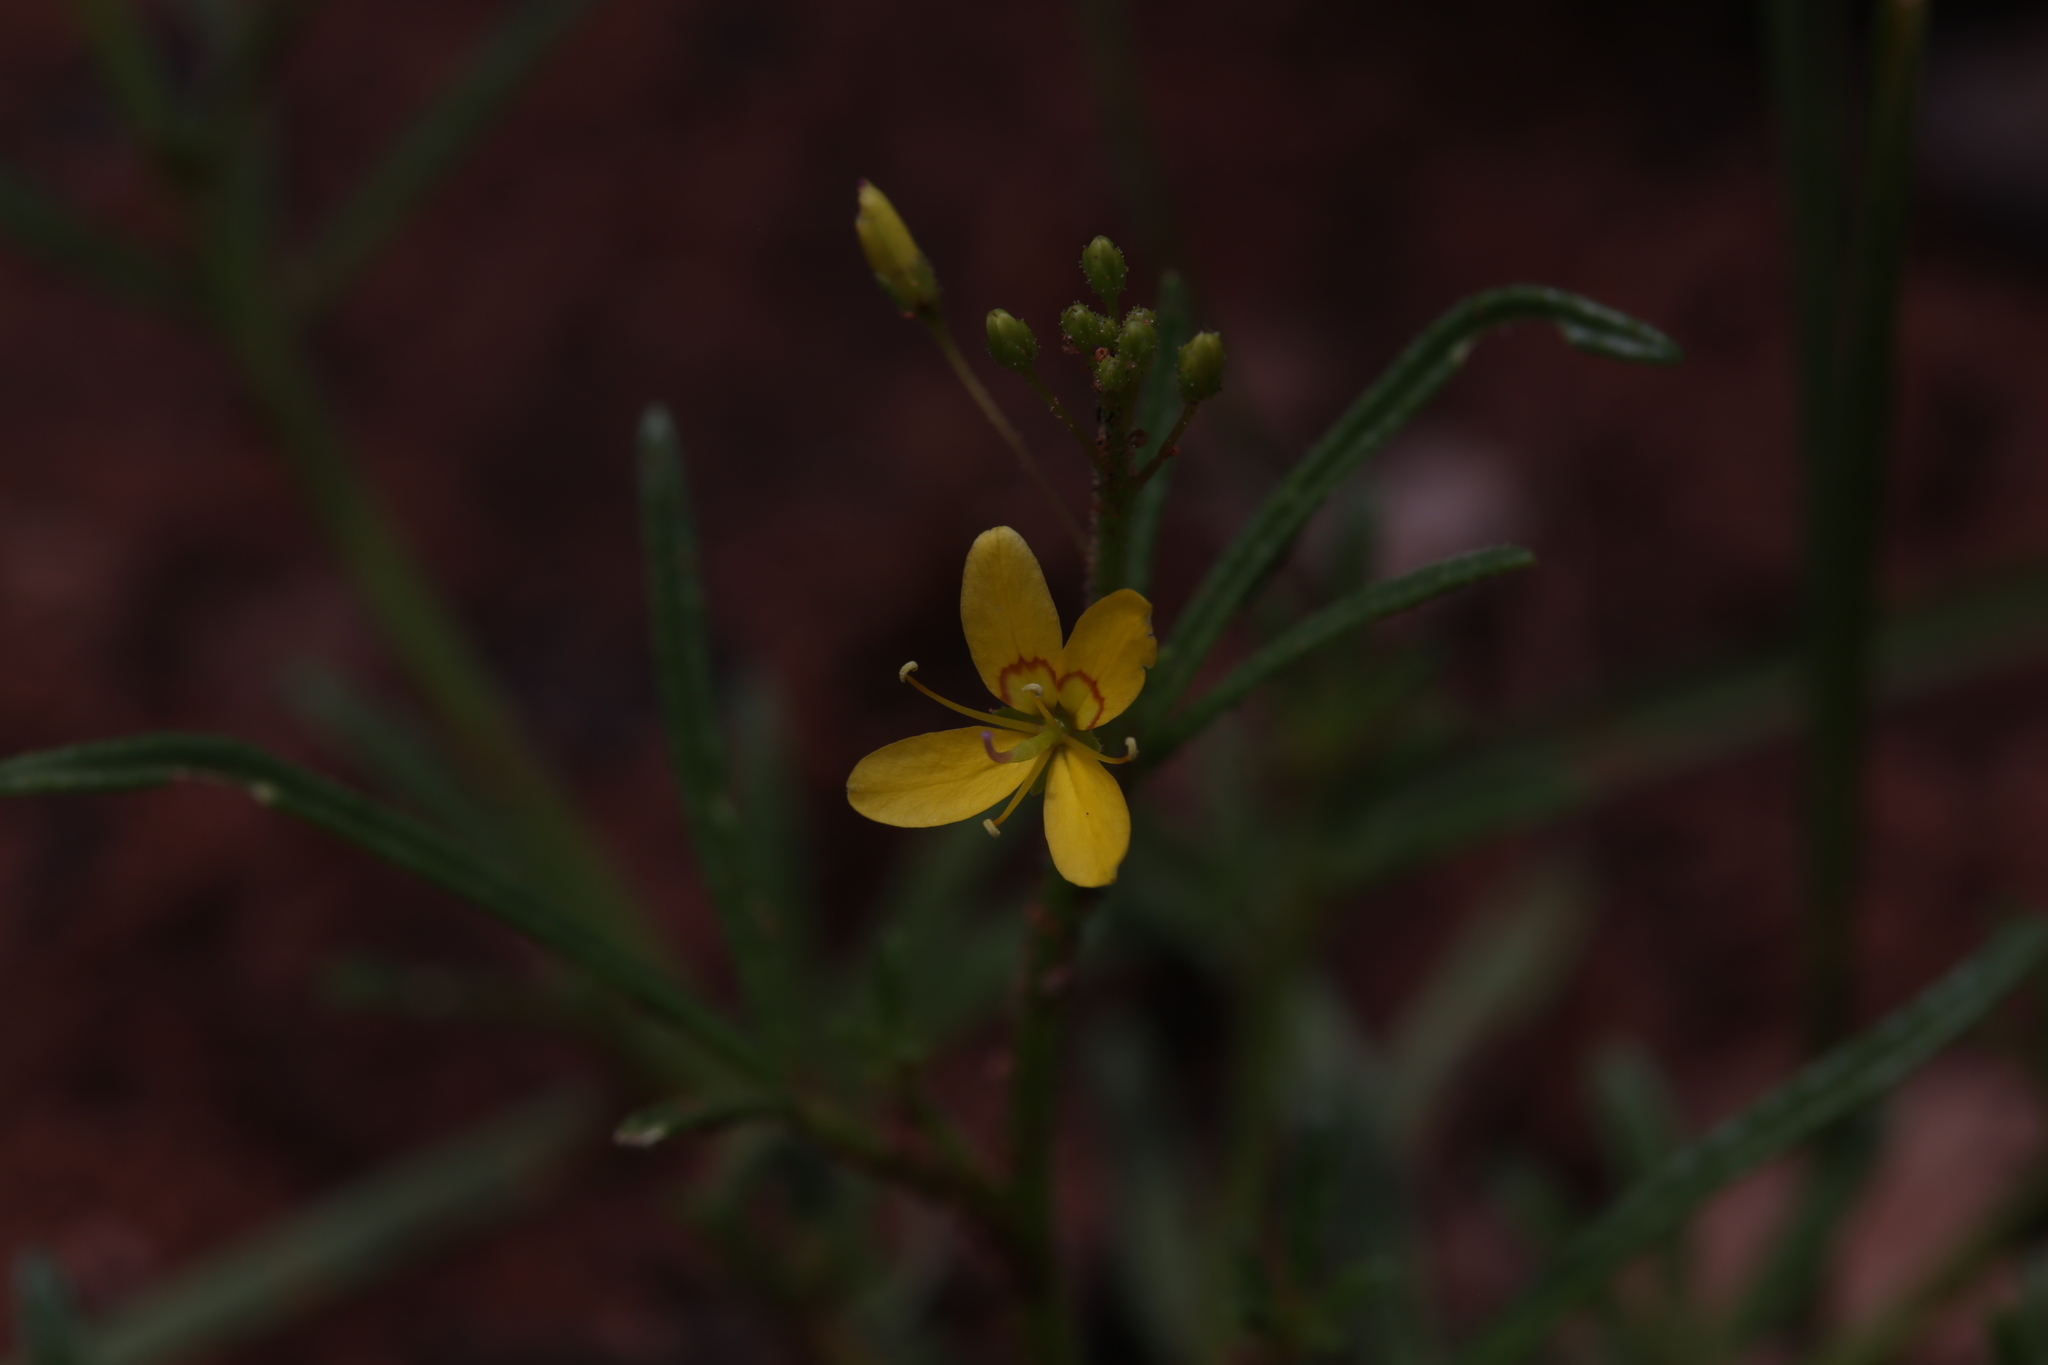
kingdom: Plantae
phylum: Tracheophyta
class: Magnoliopsida
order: Brassicales
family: Cleomaceae
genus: Arivela
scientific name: Arivela tetrandra
